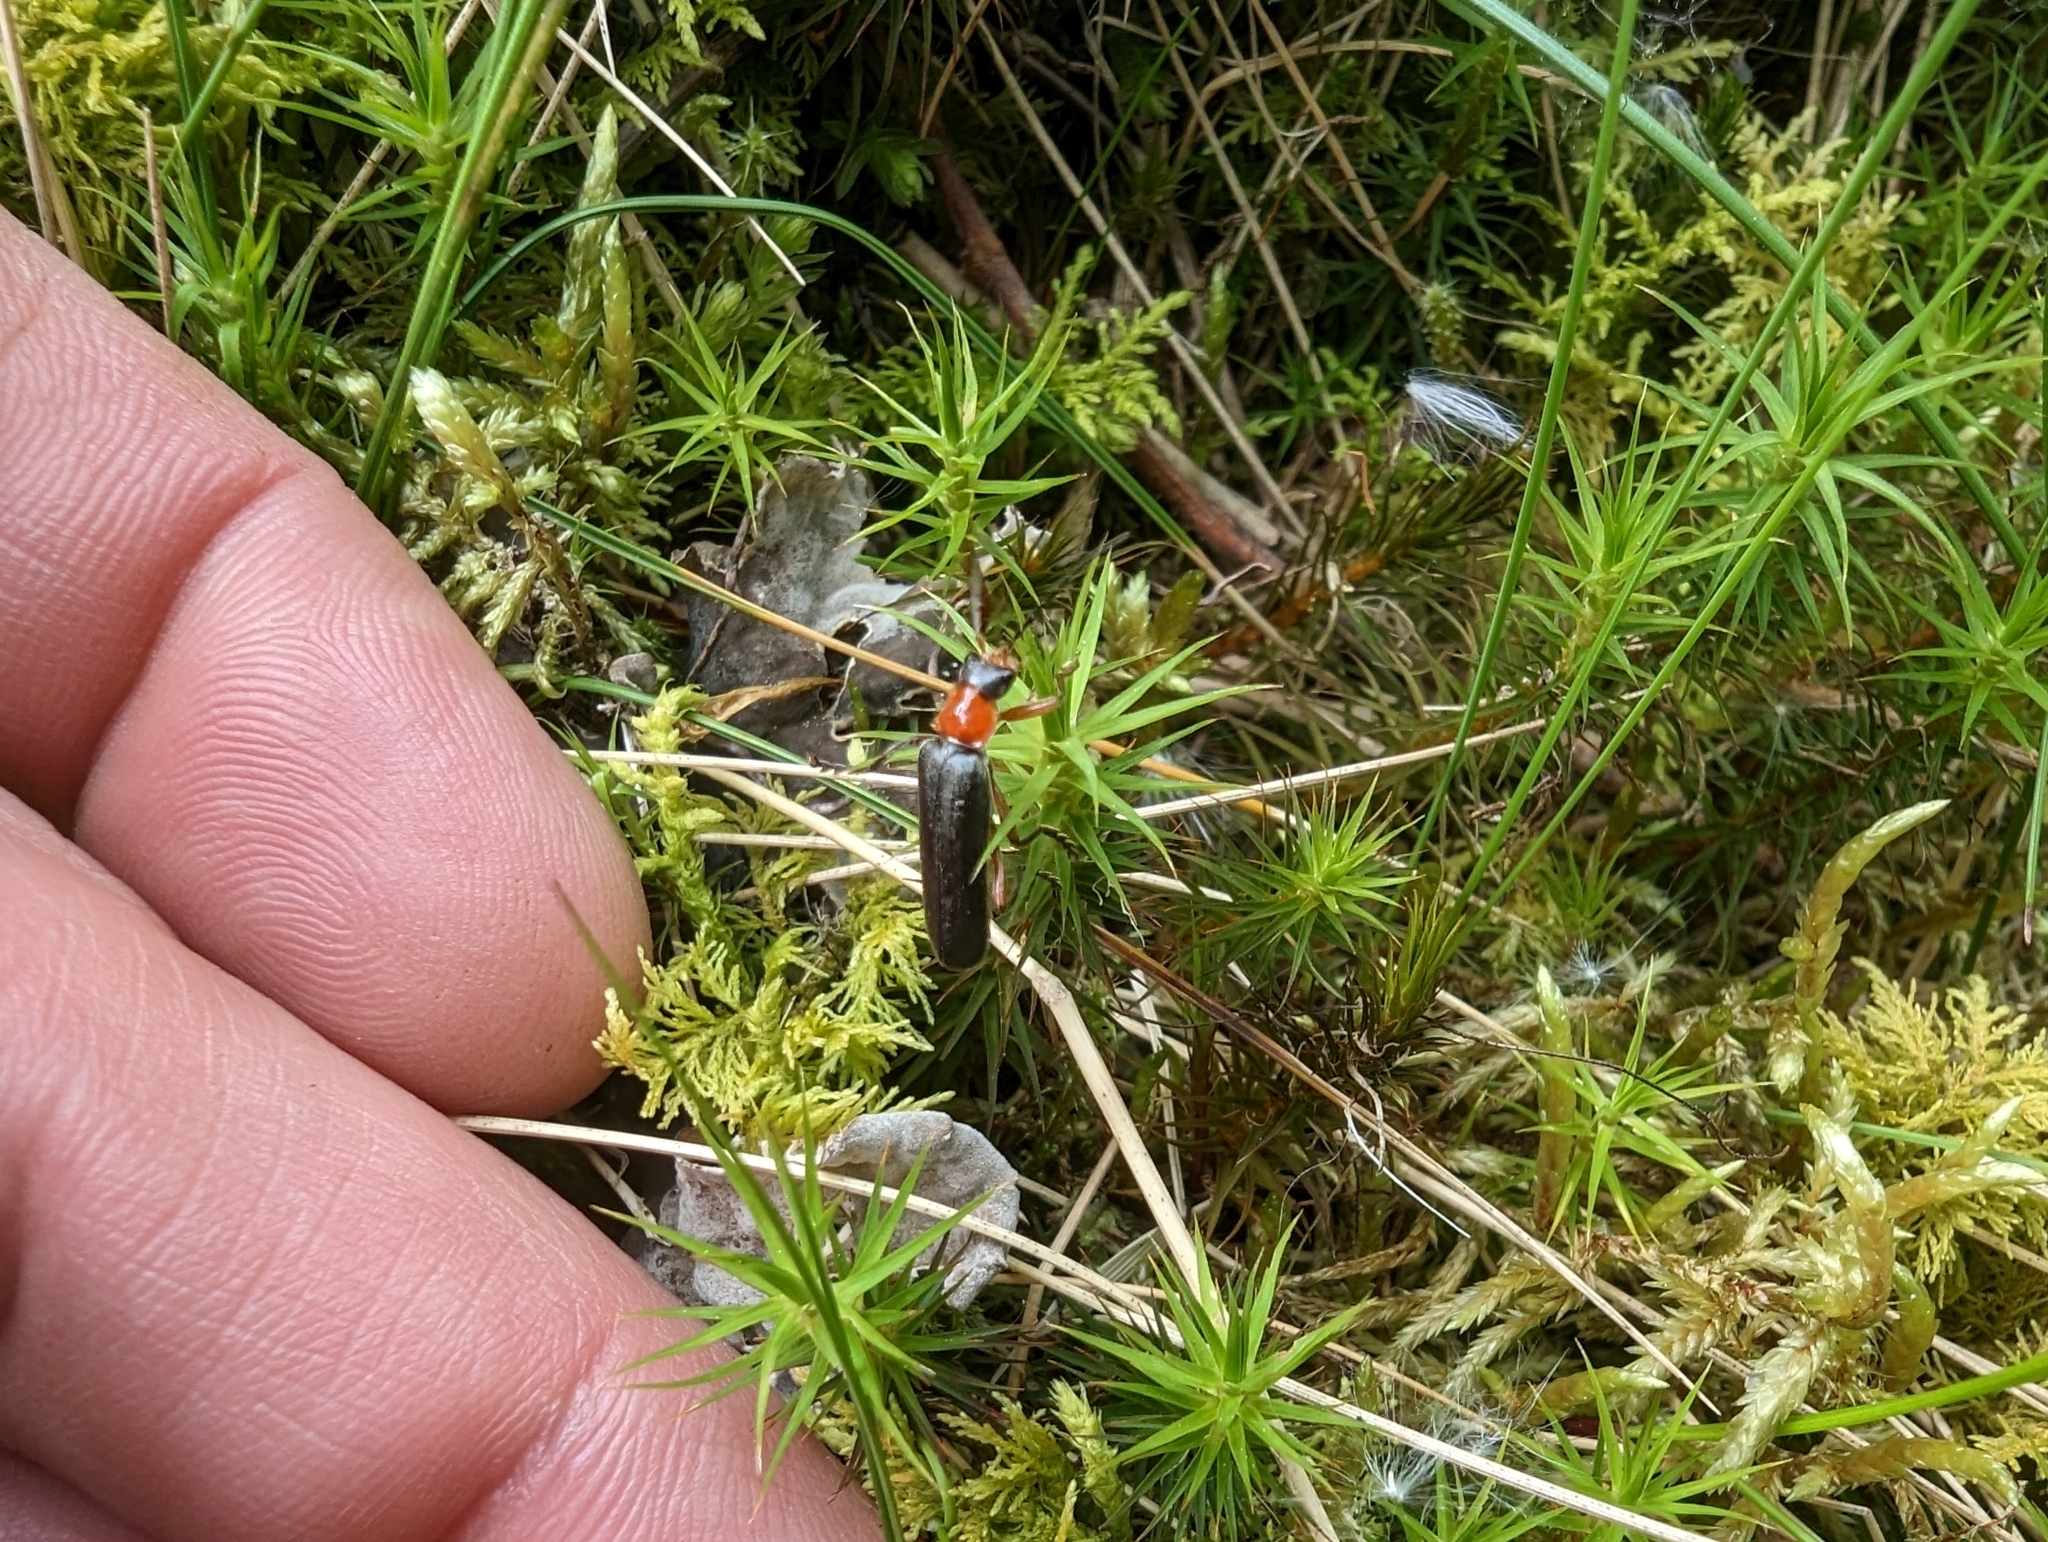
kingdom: Animalia
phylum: Arthropoda
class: Insecta
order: Coleoptera
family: Cantharidae
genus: Cantharis
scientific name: Cantharis pellucida
